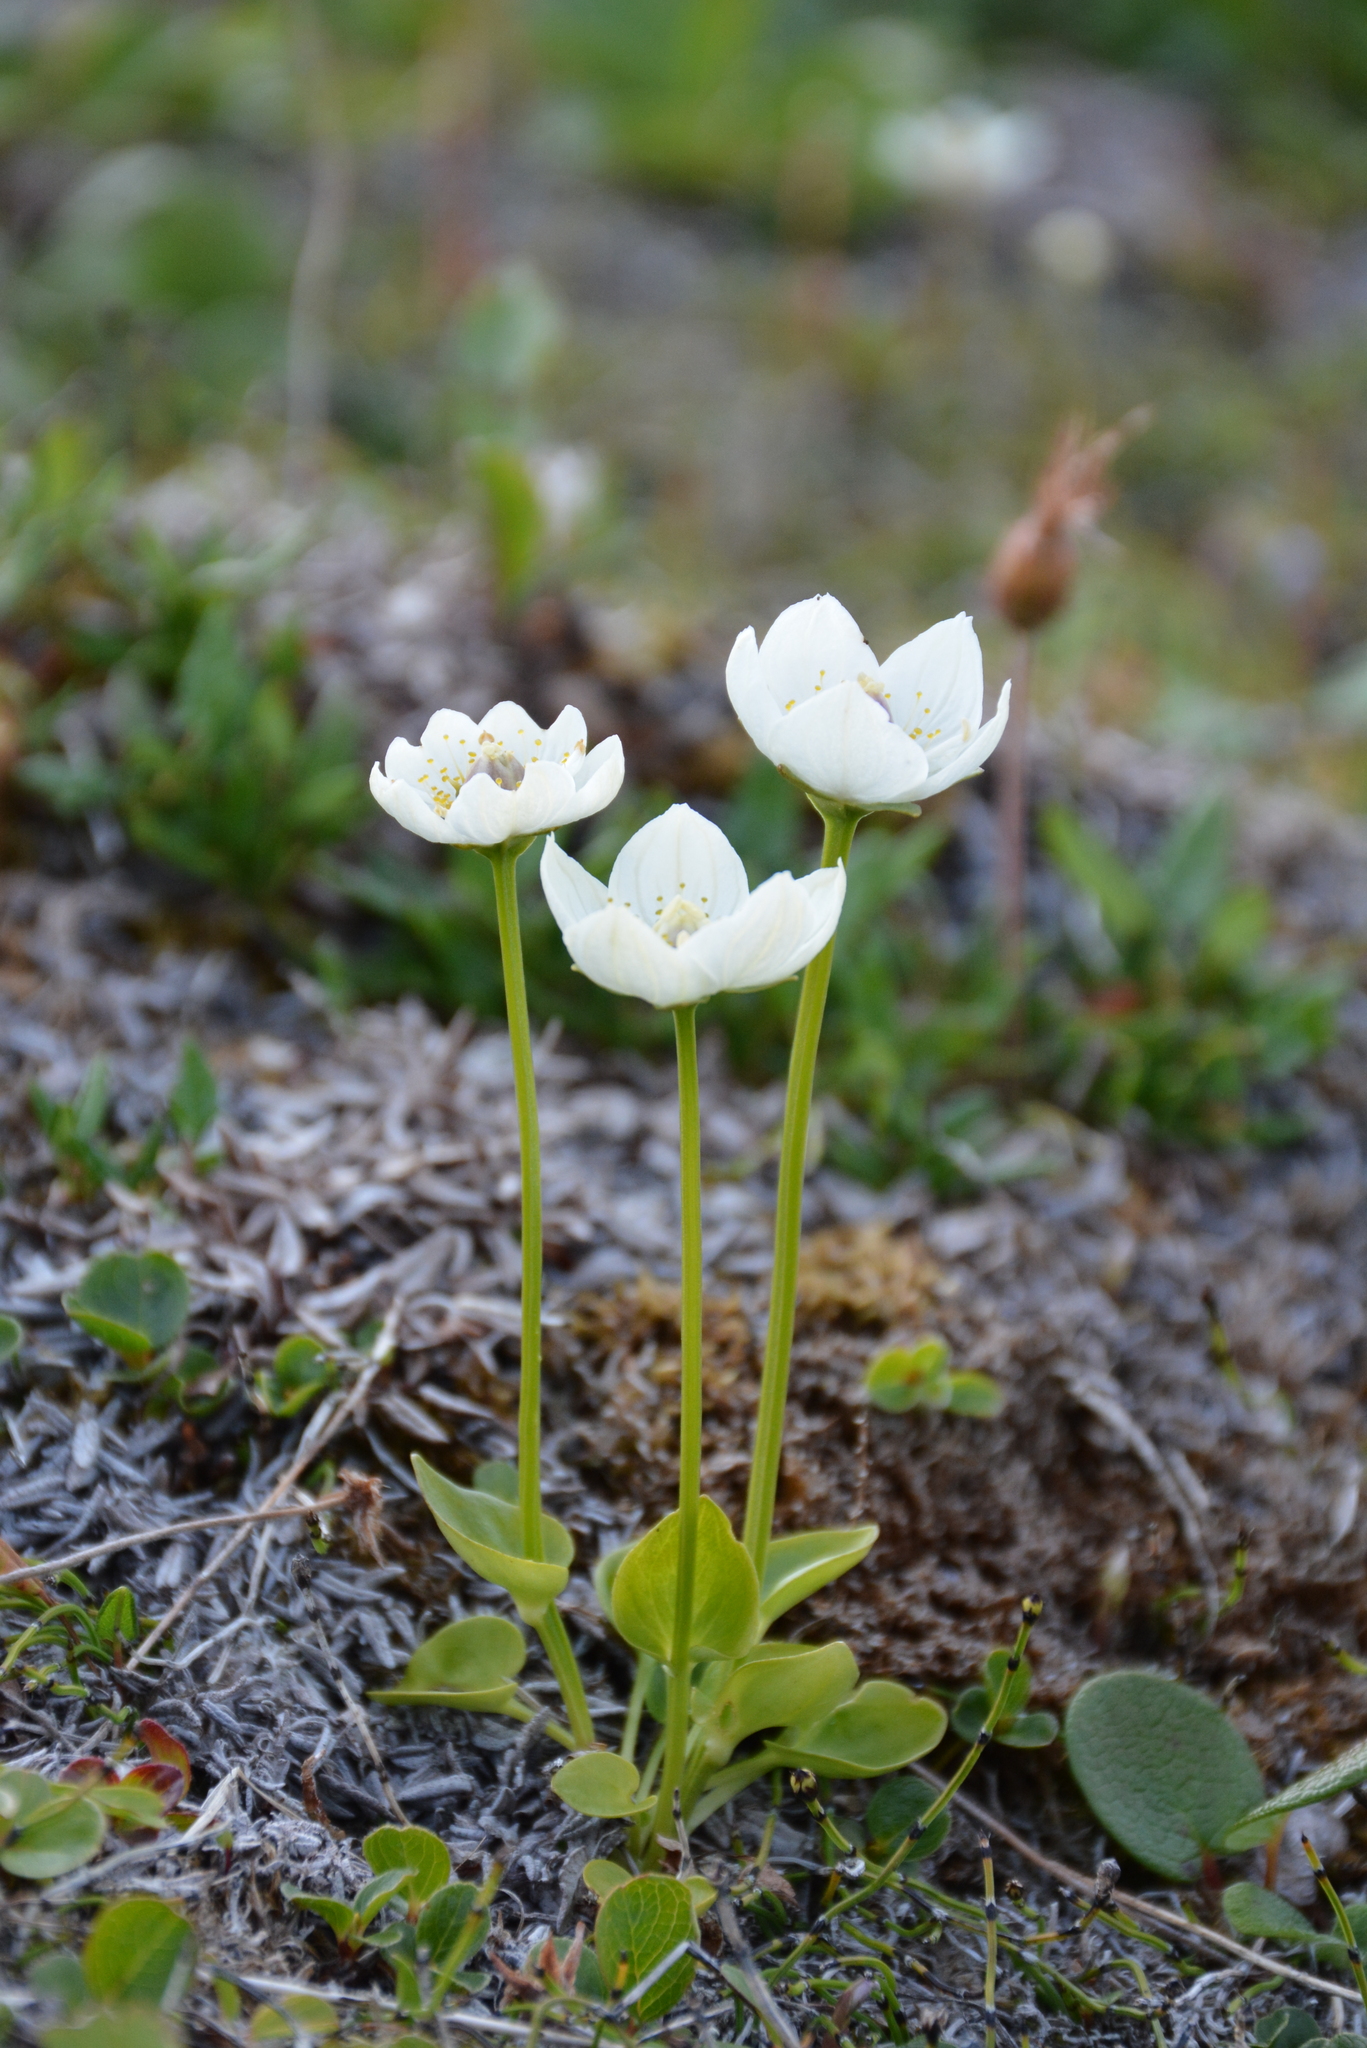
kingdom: Plantae
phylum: Tracheophyta
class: Magnoliopsida
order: Celastrales
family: Parnassiaceae
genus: Parnassia
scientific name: Parnassia palustris
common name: Grass-of-parnassus
